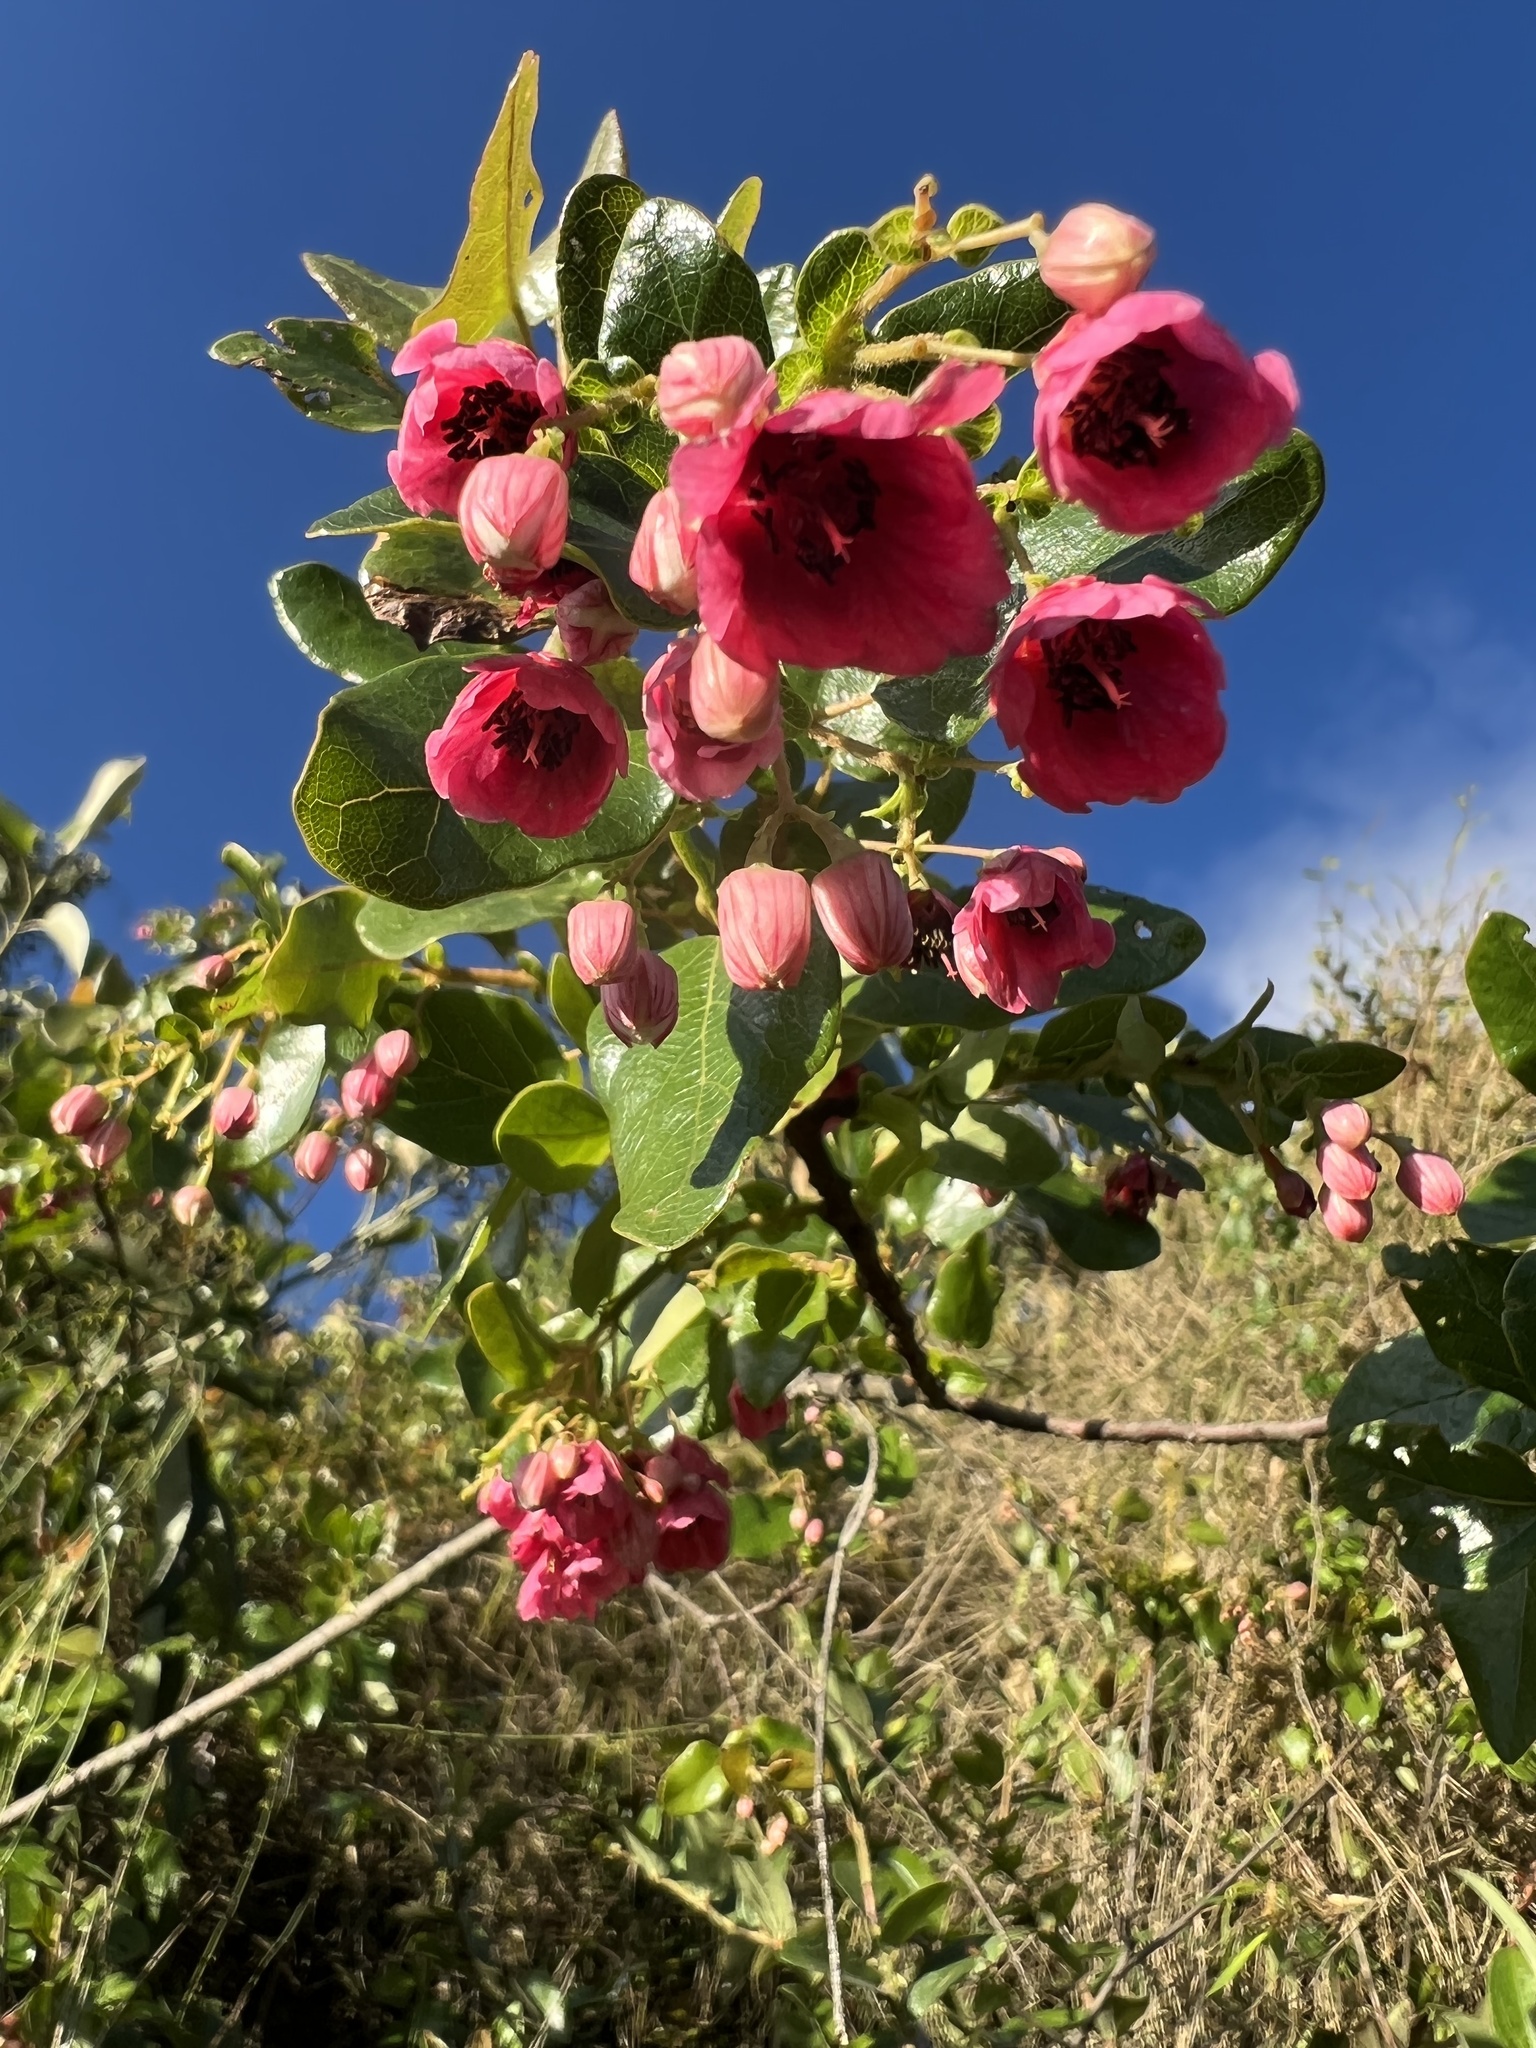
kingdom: Plantae
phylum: Tracheophyta
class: Magnoliopsida
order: Oxalidales
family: Elaeocarpaceae
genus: Vallea
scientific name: Vallea stipularis
